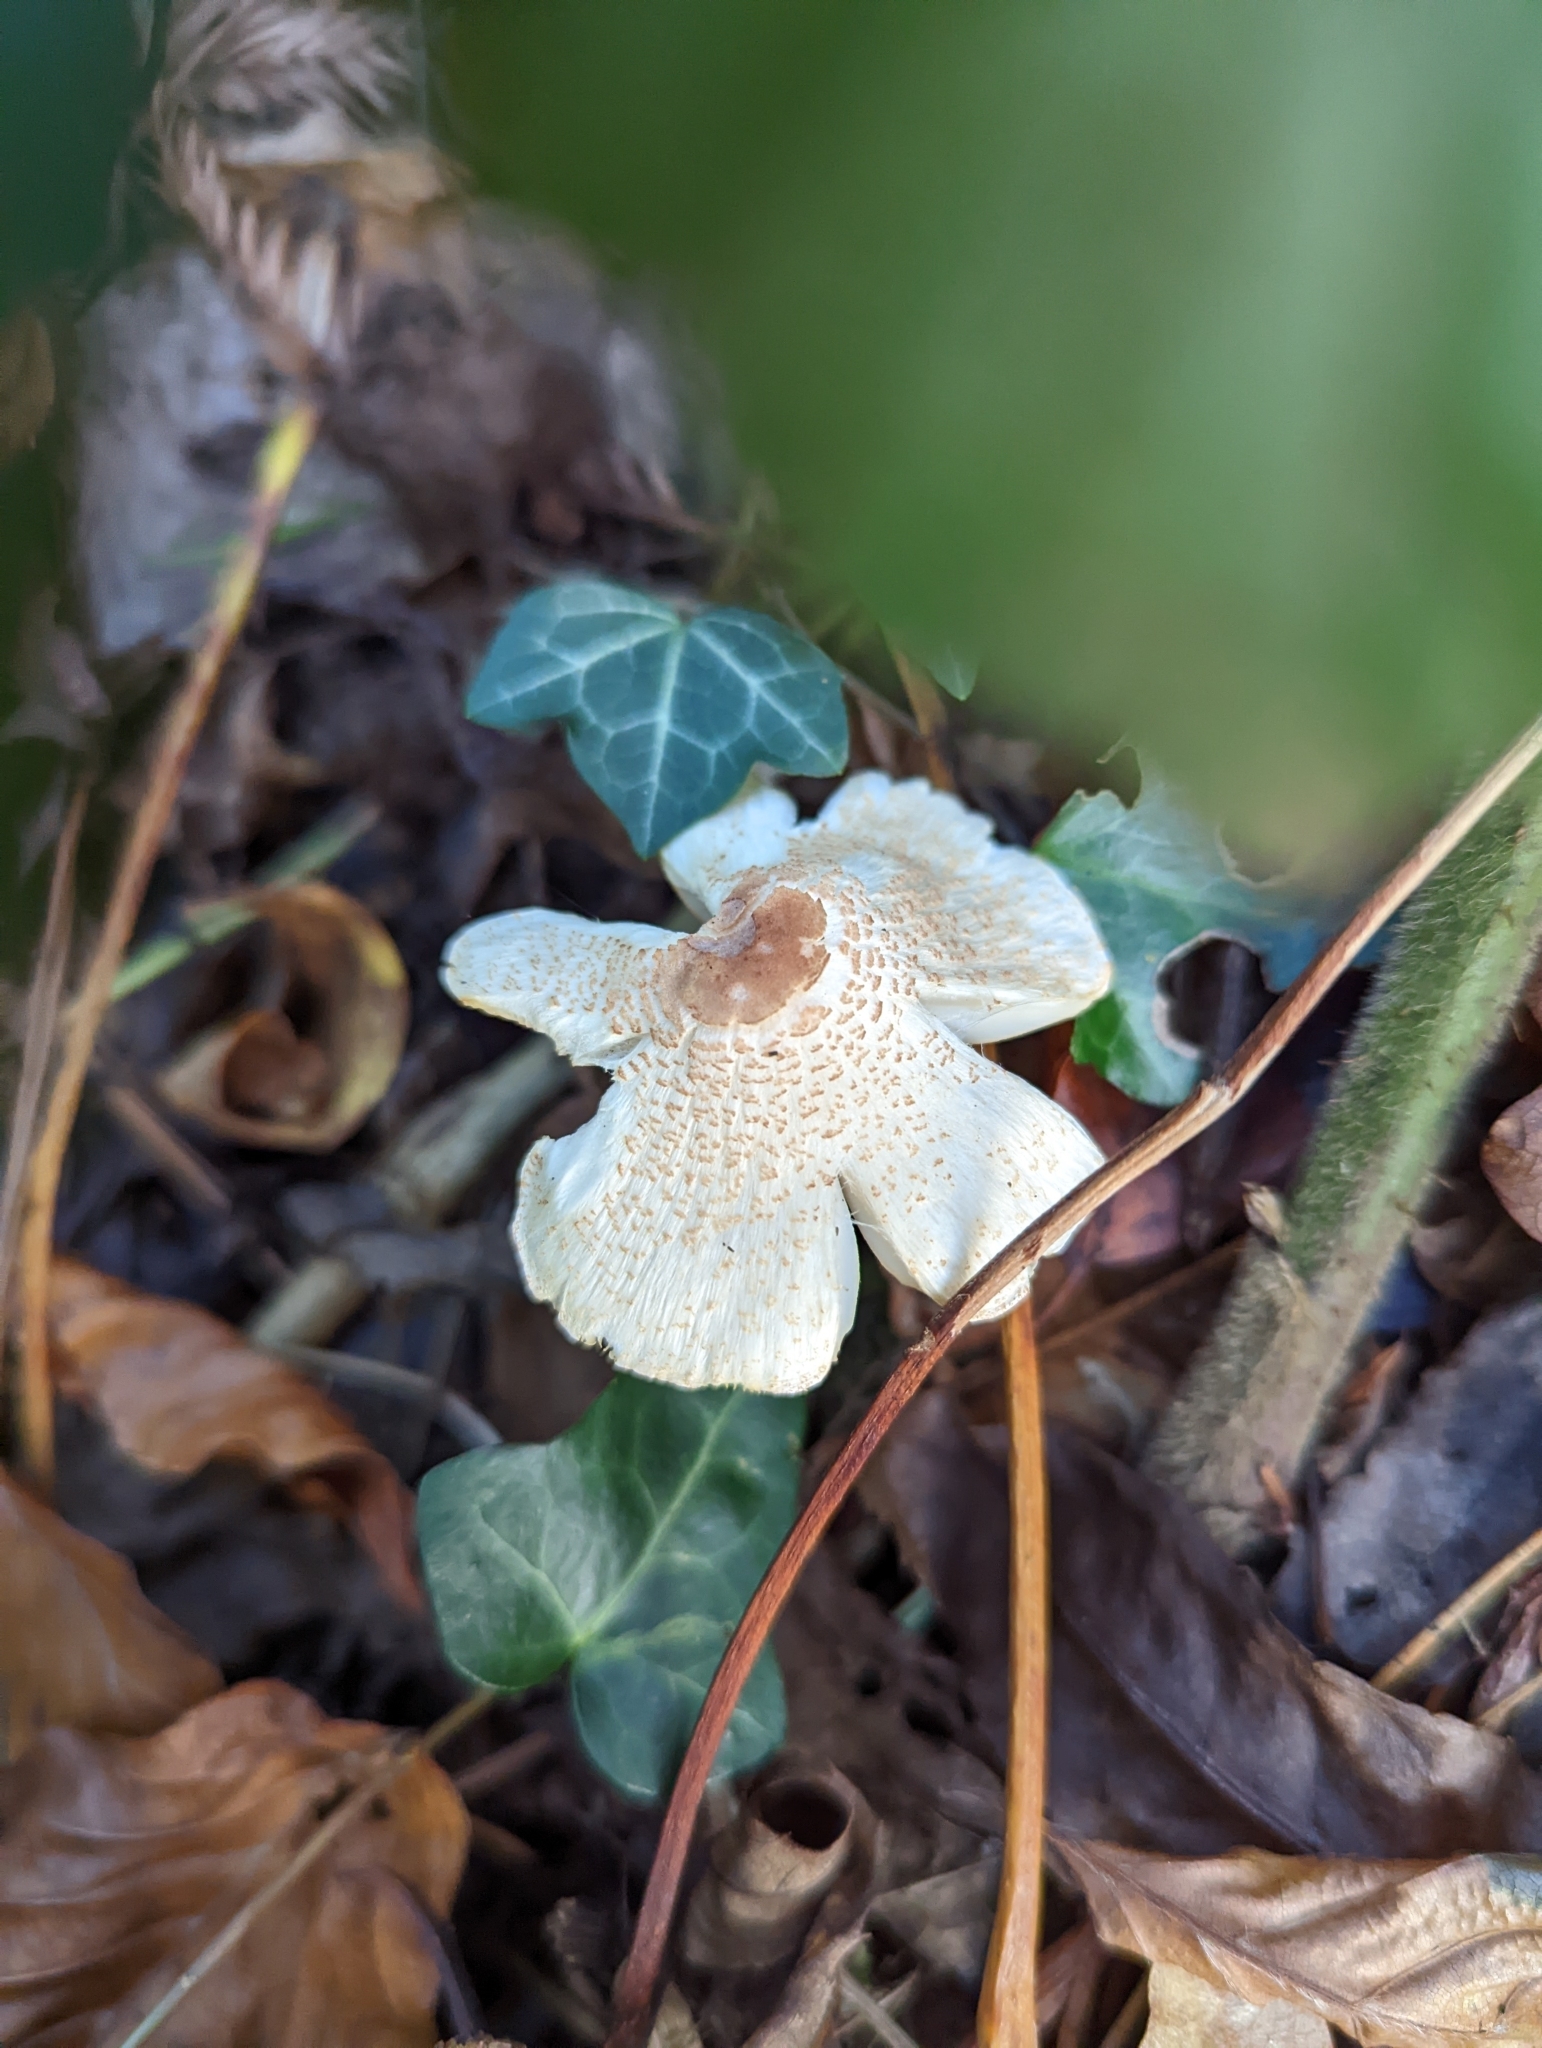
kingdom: Fungi
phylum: Basidiomycota
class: Agaricomycetes
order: Agaricales
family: Agaricaceae
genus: Lepiota
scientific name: Lepiota cristata
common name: Stinking dapperling
